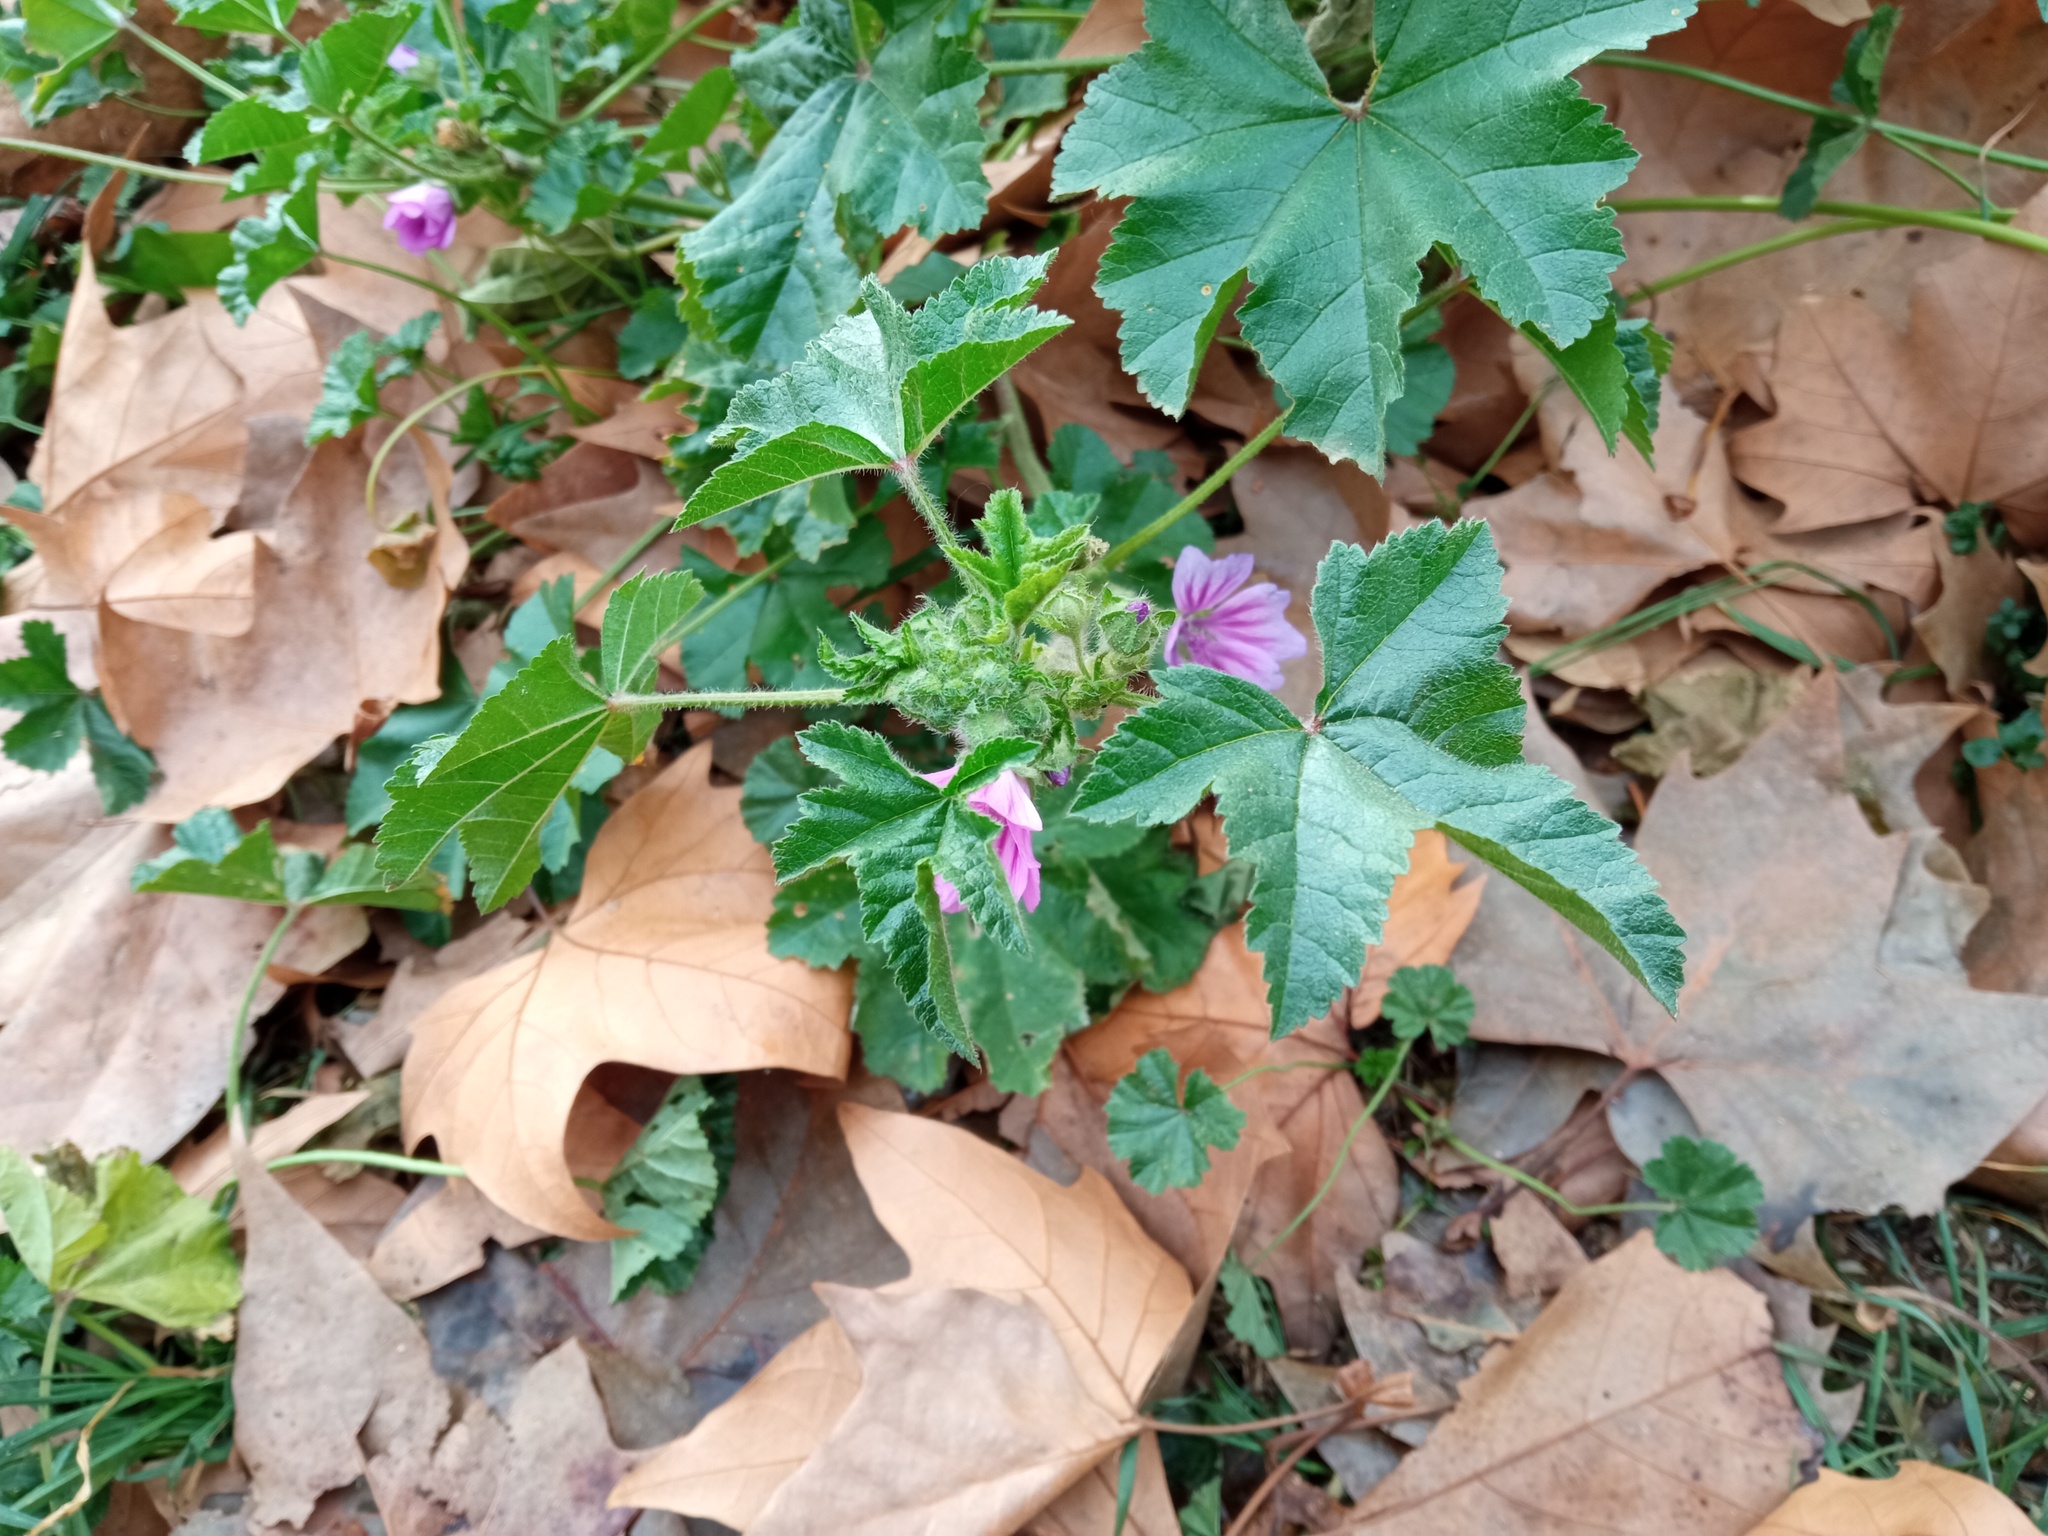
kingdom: Plantae
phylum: Tracheophyta
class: Magnoliopsida
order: Malvales
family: Malvaceae
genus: Malva
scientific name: Malva sylvestris
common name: Common mallow
